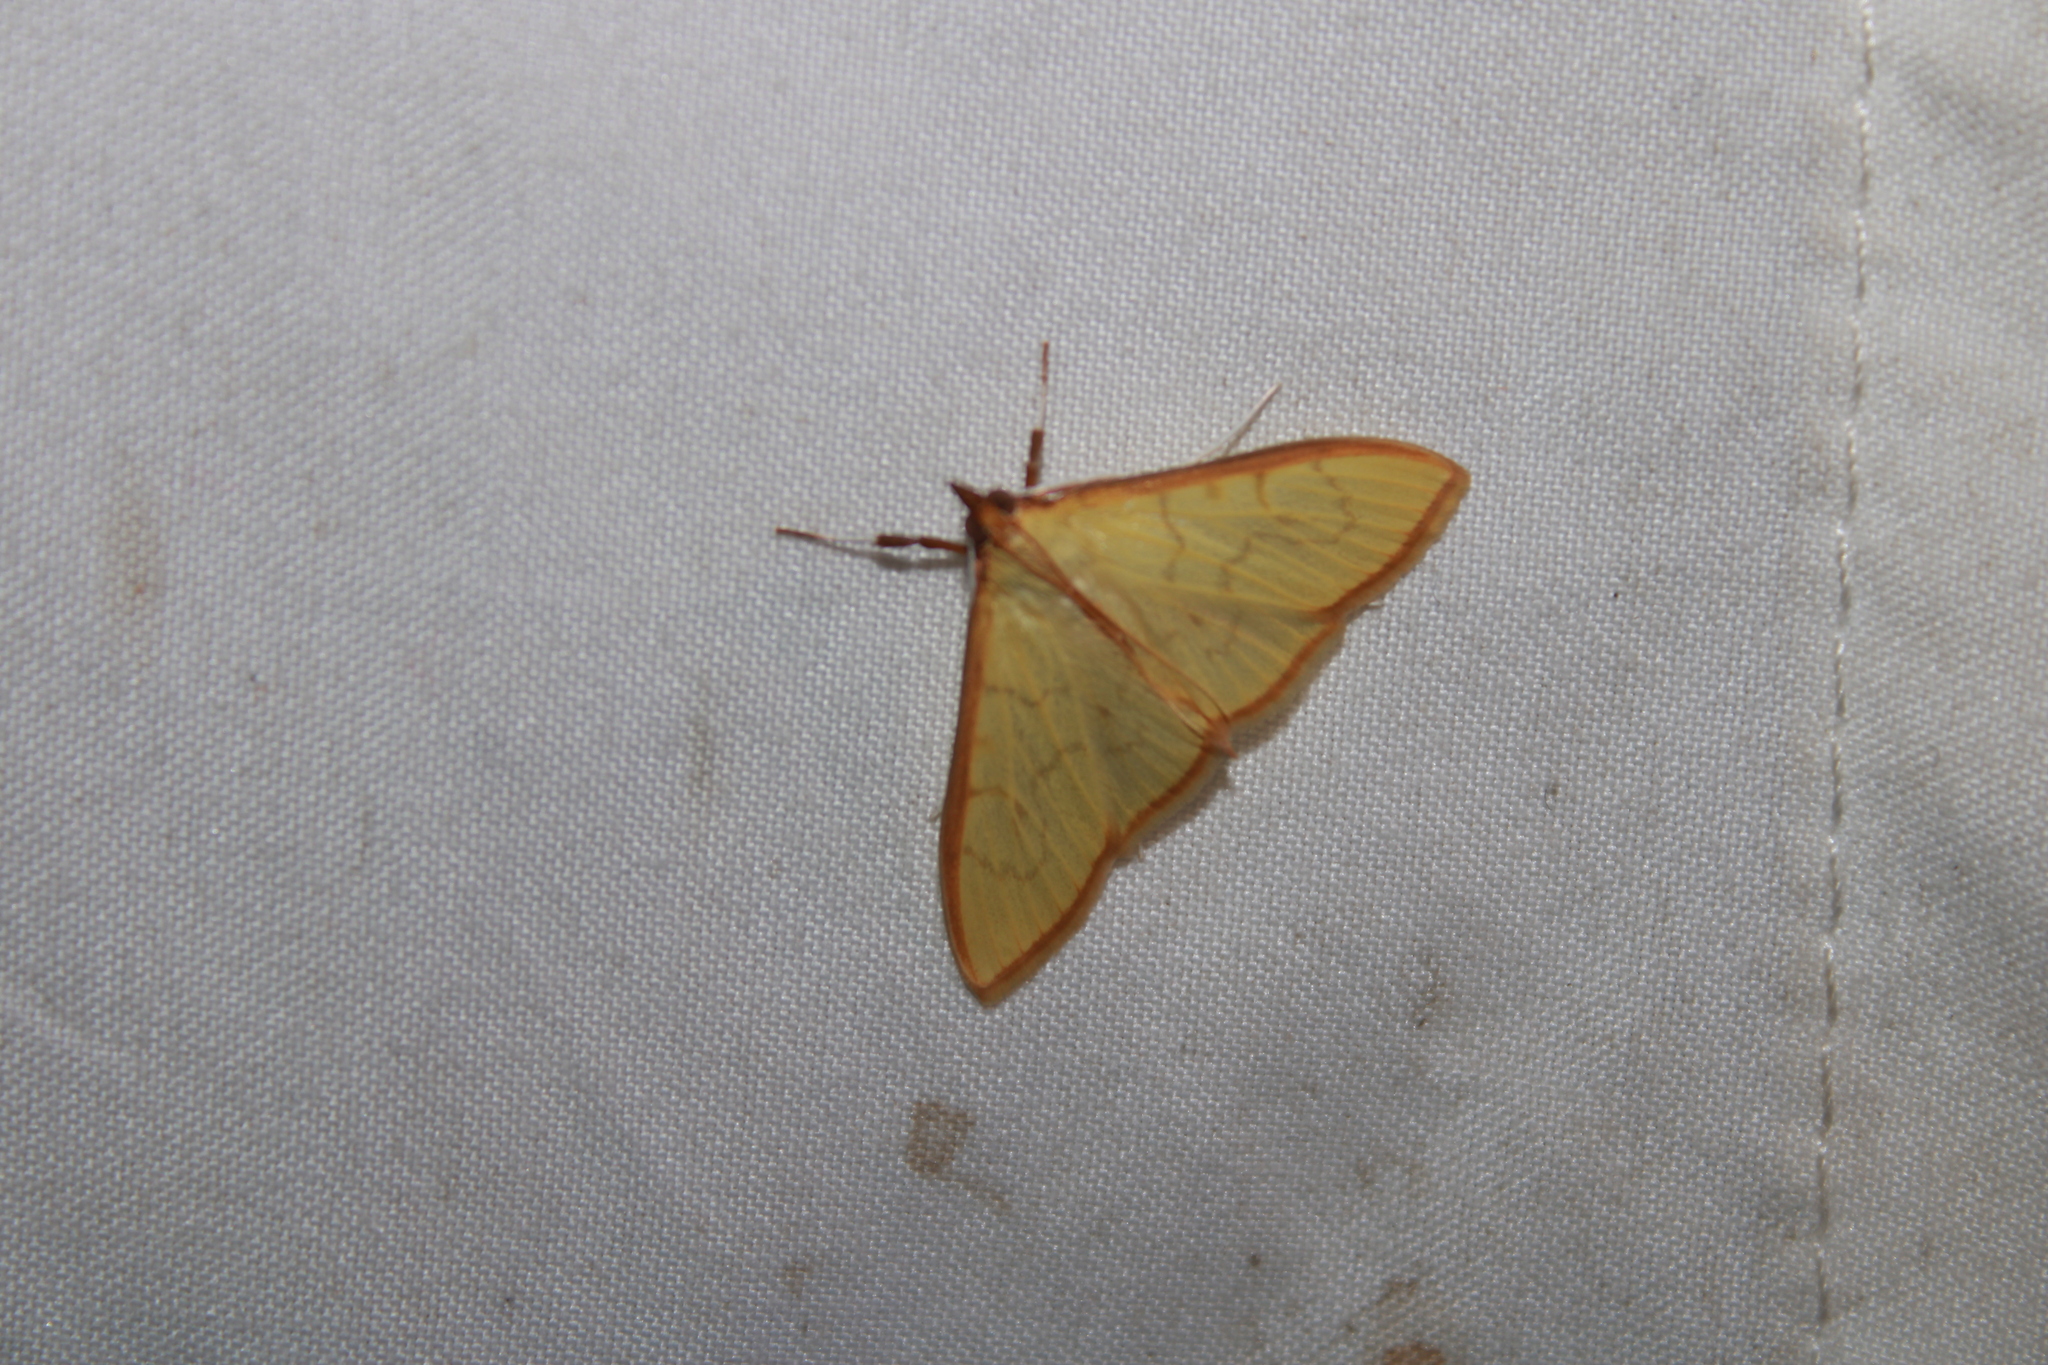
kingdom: Animalia
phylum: Arthropoda
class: Insecta
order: Lepidoptera
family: Crambidae
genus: Epicorsia
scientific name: Epicorsia oedipodalis
